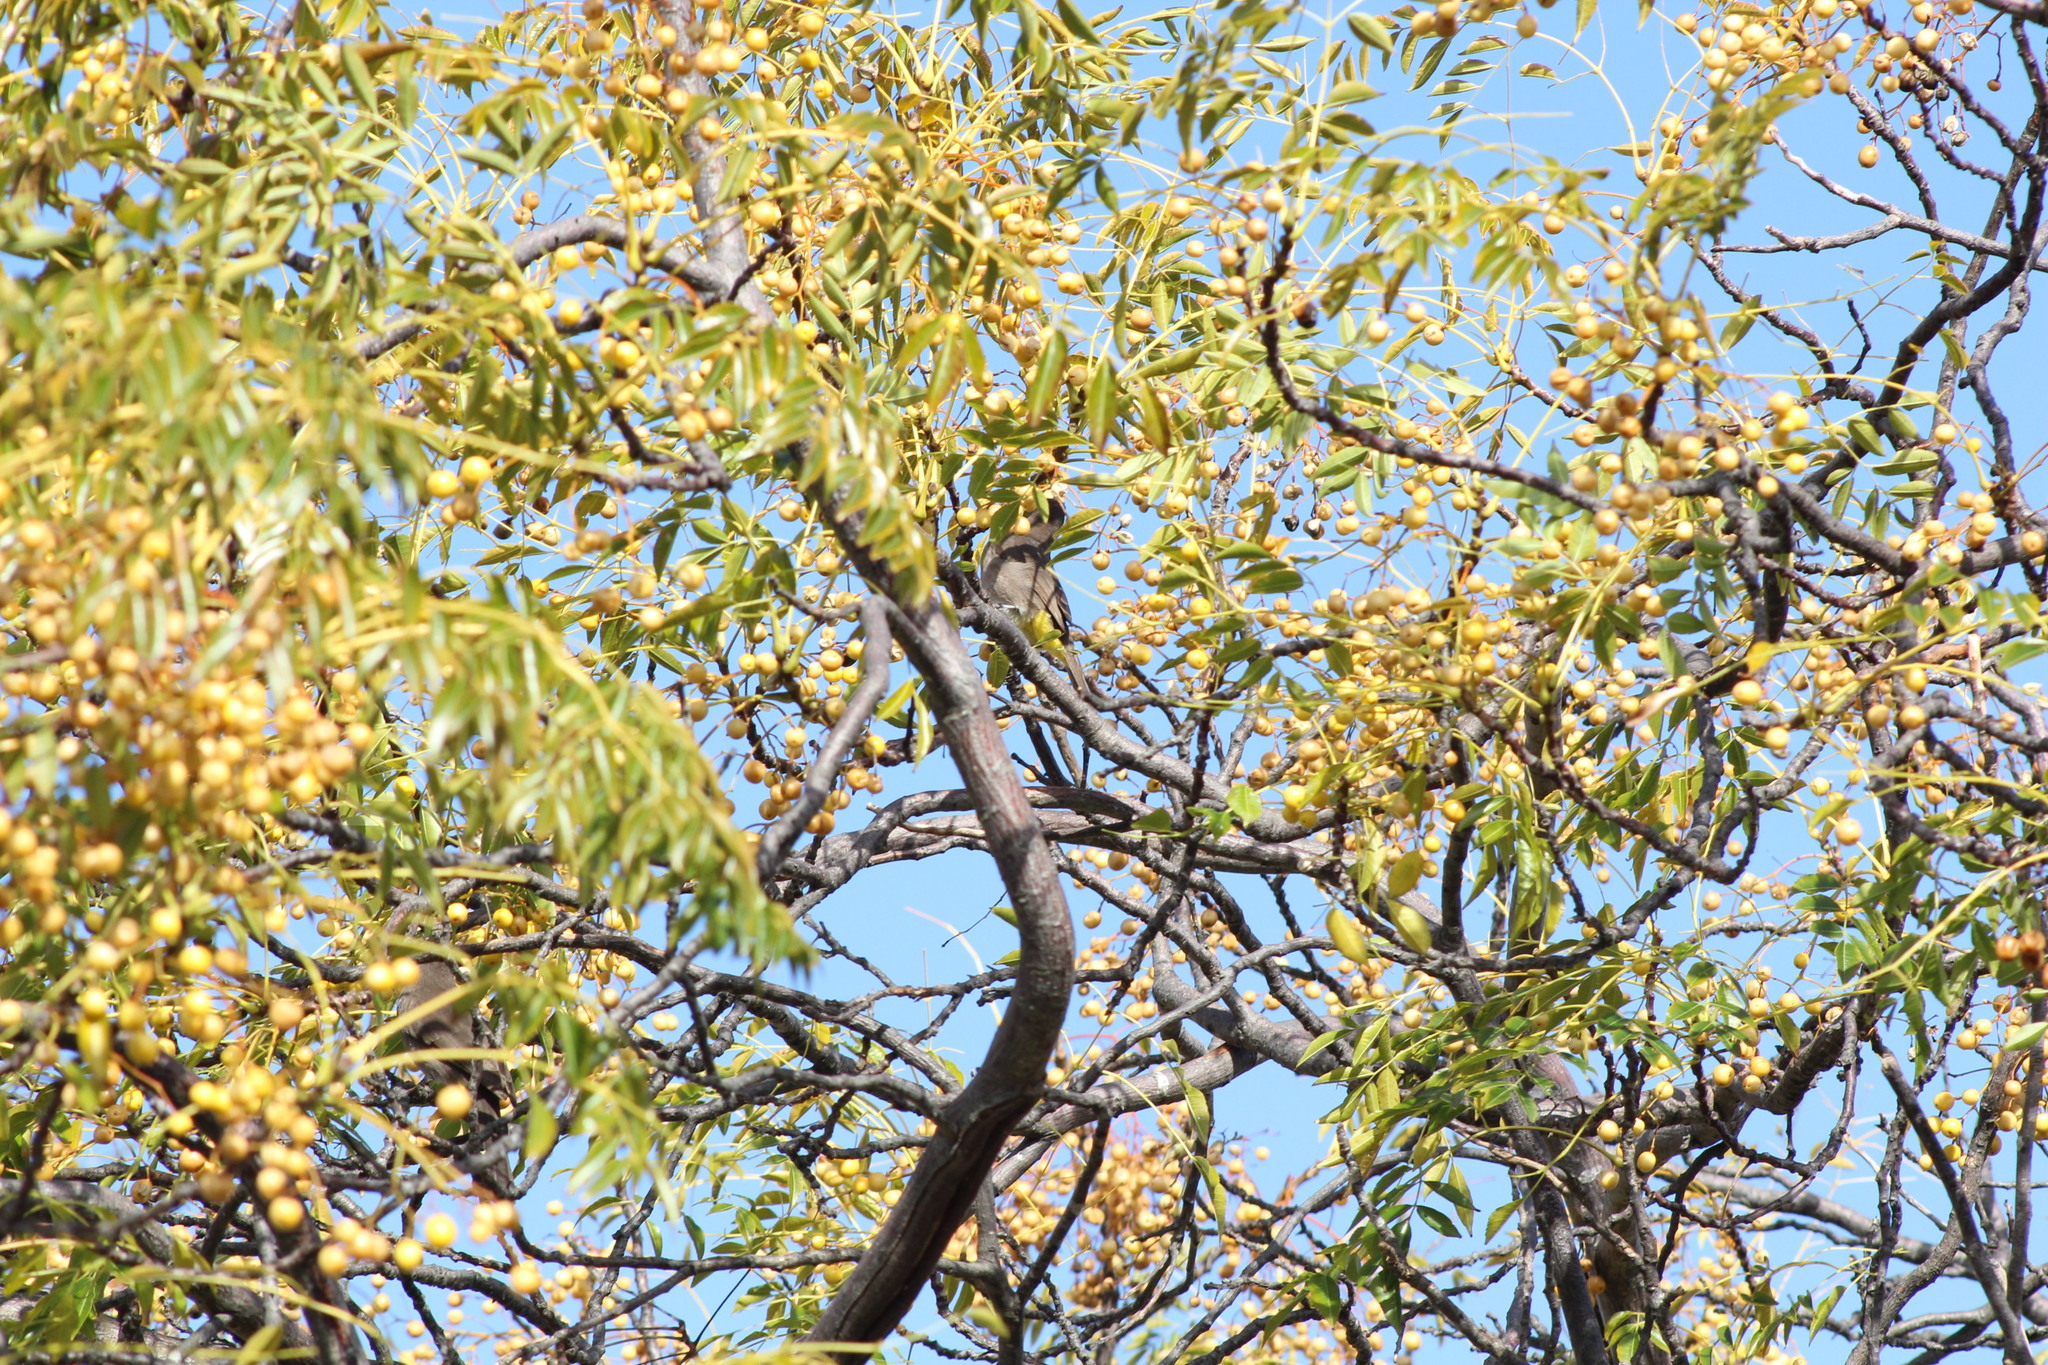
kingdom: Animalia
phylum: Chordata
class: Aves
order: Coliiformes
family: Coliidae
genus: Urocolius
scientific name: Urocolius indicus
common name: Red-faced mousebird
